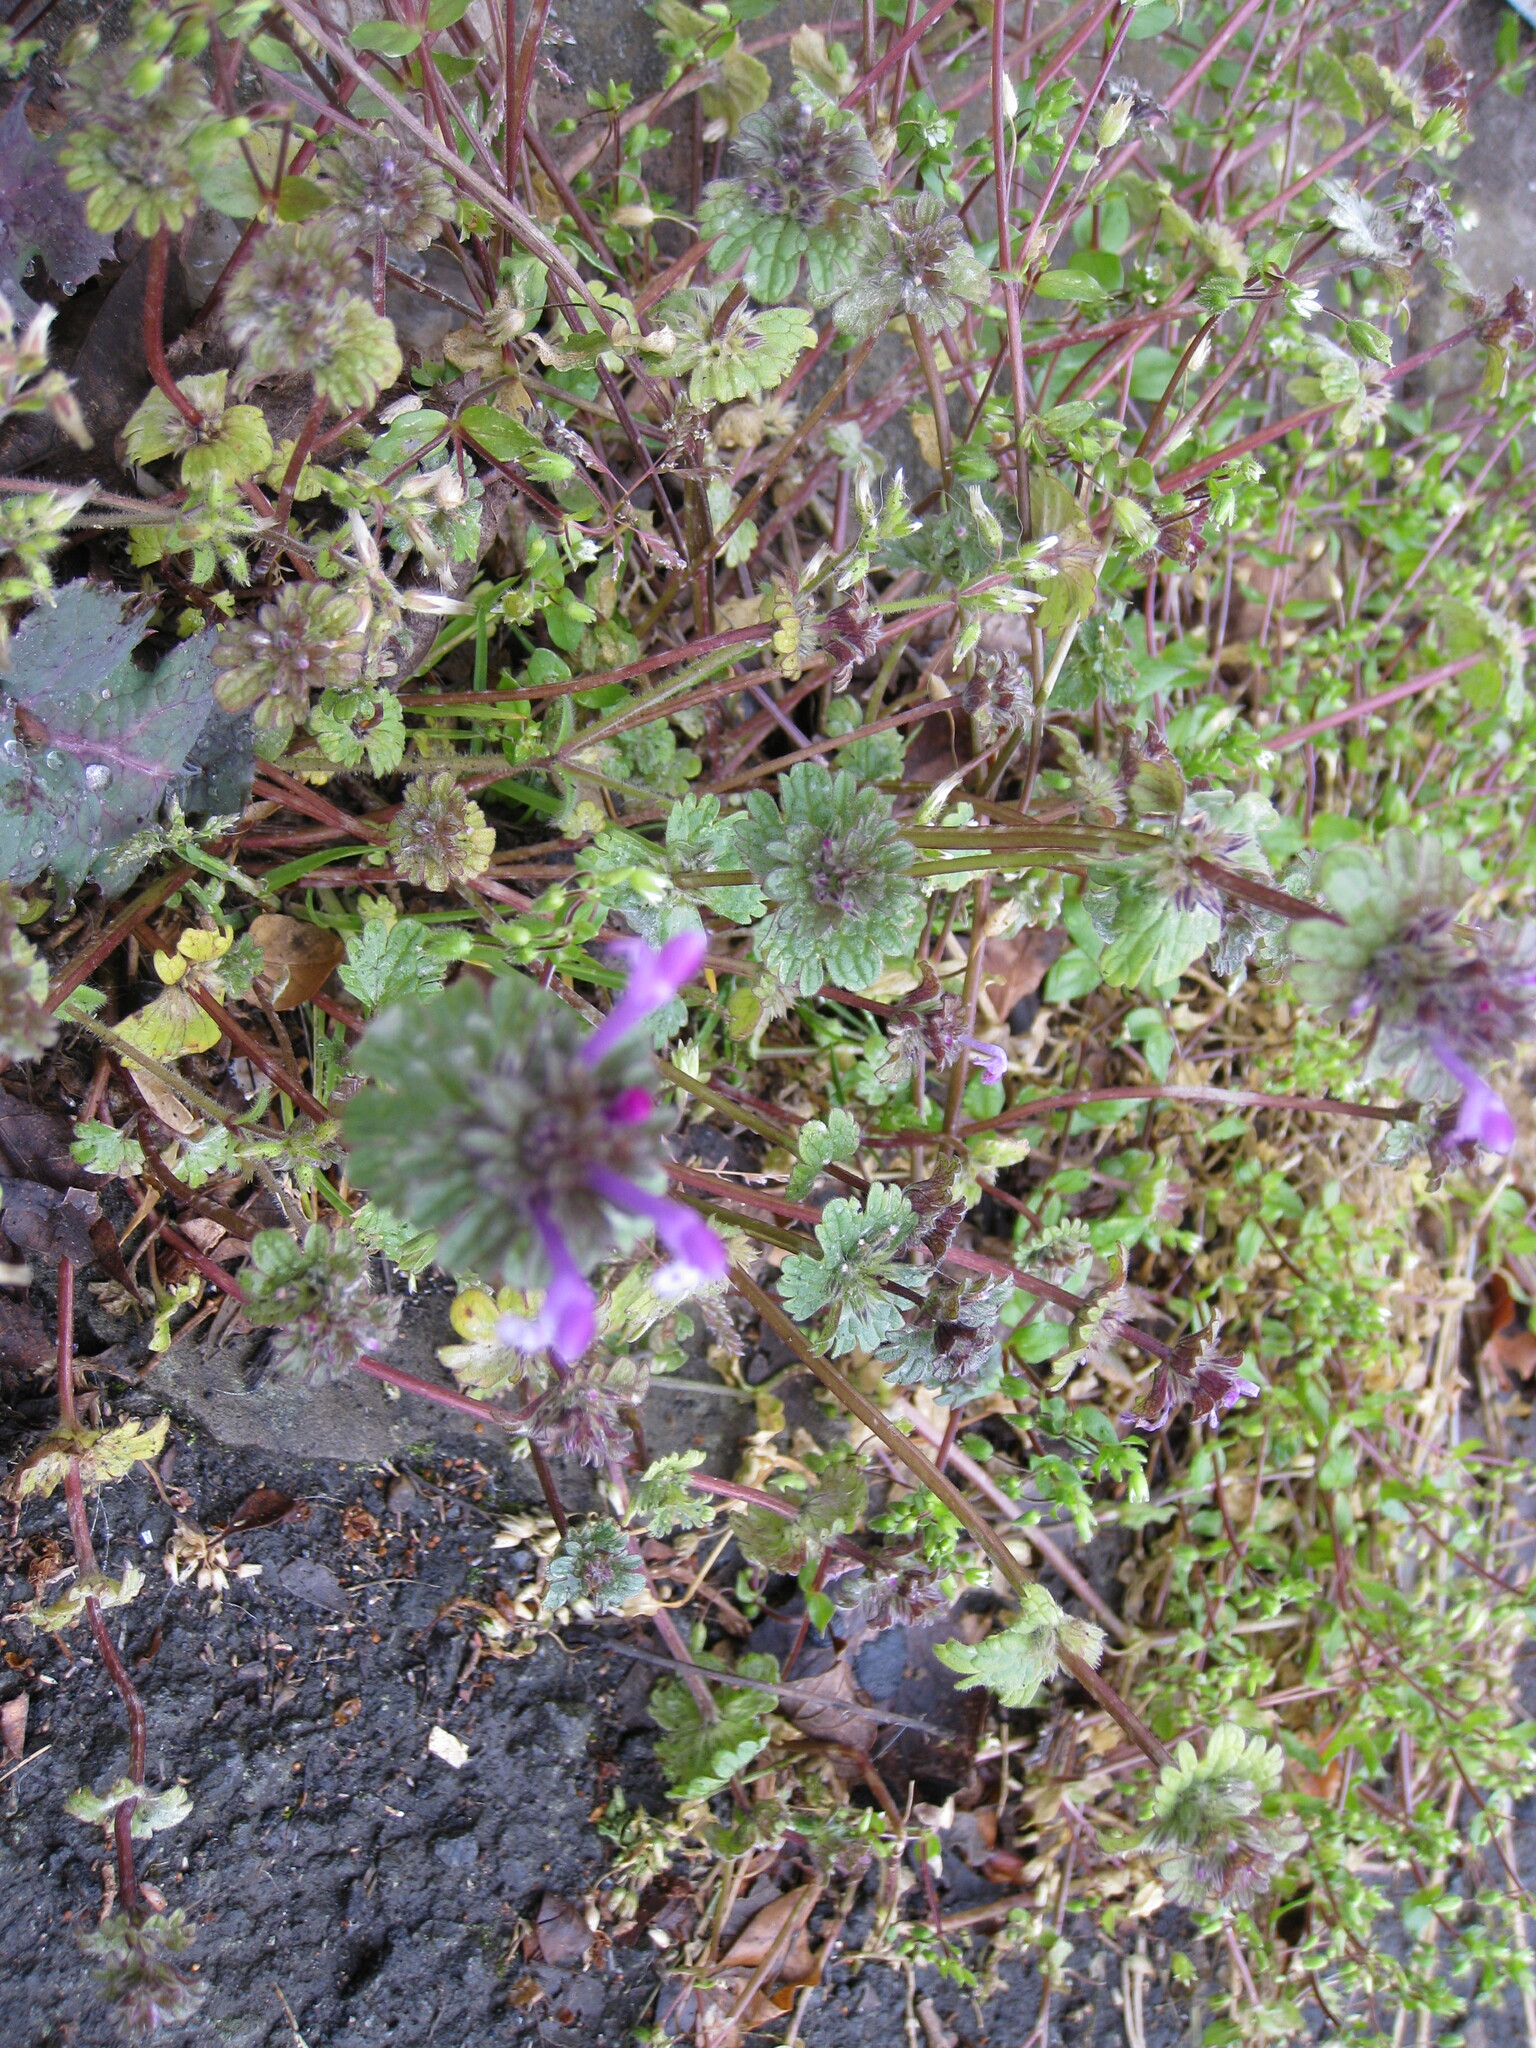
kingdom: Plantae
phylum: Tracheophyta
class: Magnoliopsida
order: Lamiales
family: Lamiaceae
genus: Lamium
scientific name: Lamium amplexicaule
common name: Henbit dead-nettle
